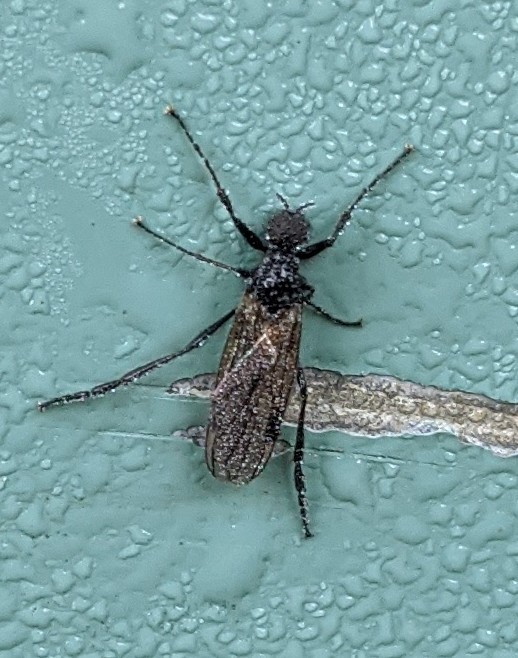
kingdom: Animalia
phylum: Arthropoda
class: Insecta
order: Diptera
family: Bibionidae
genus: Bibio
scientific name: Bibio slossonae
